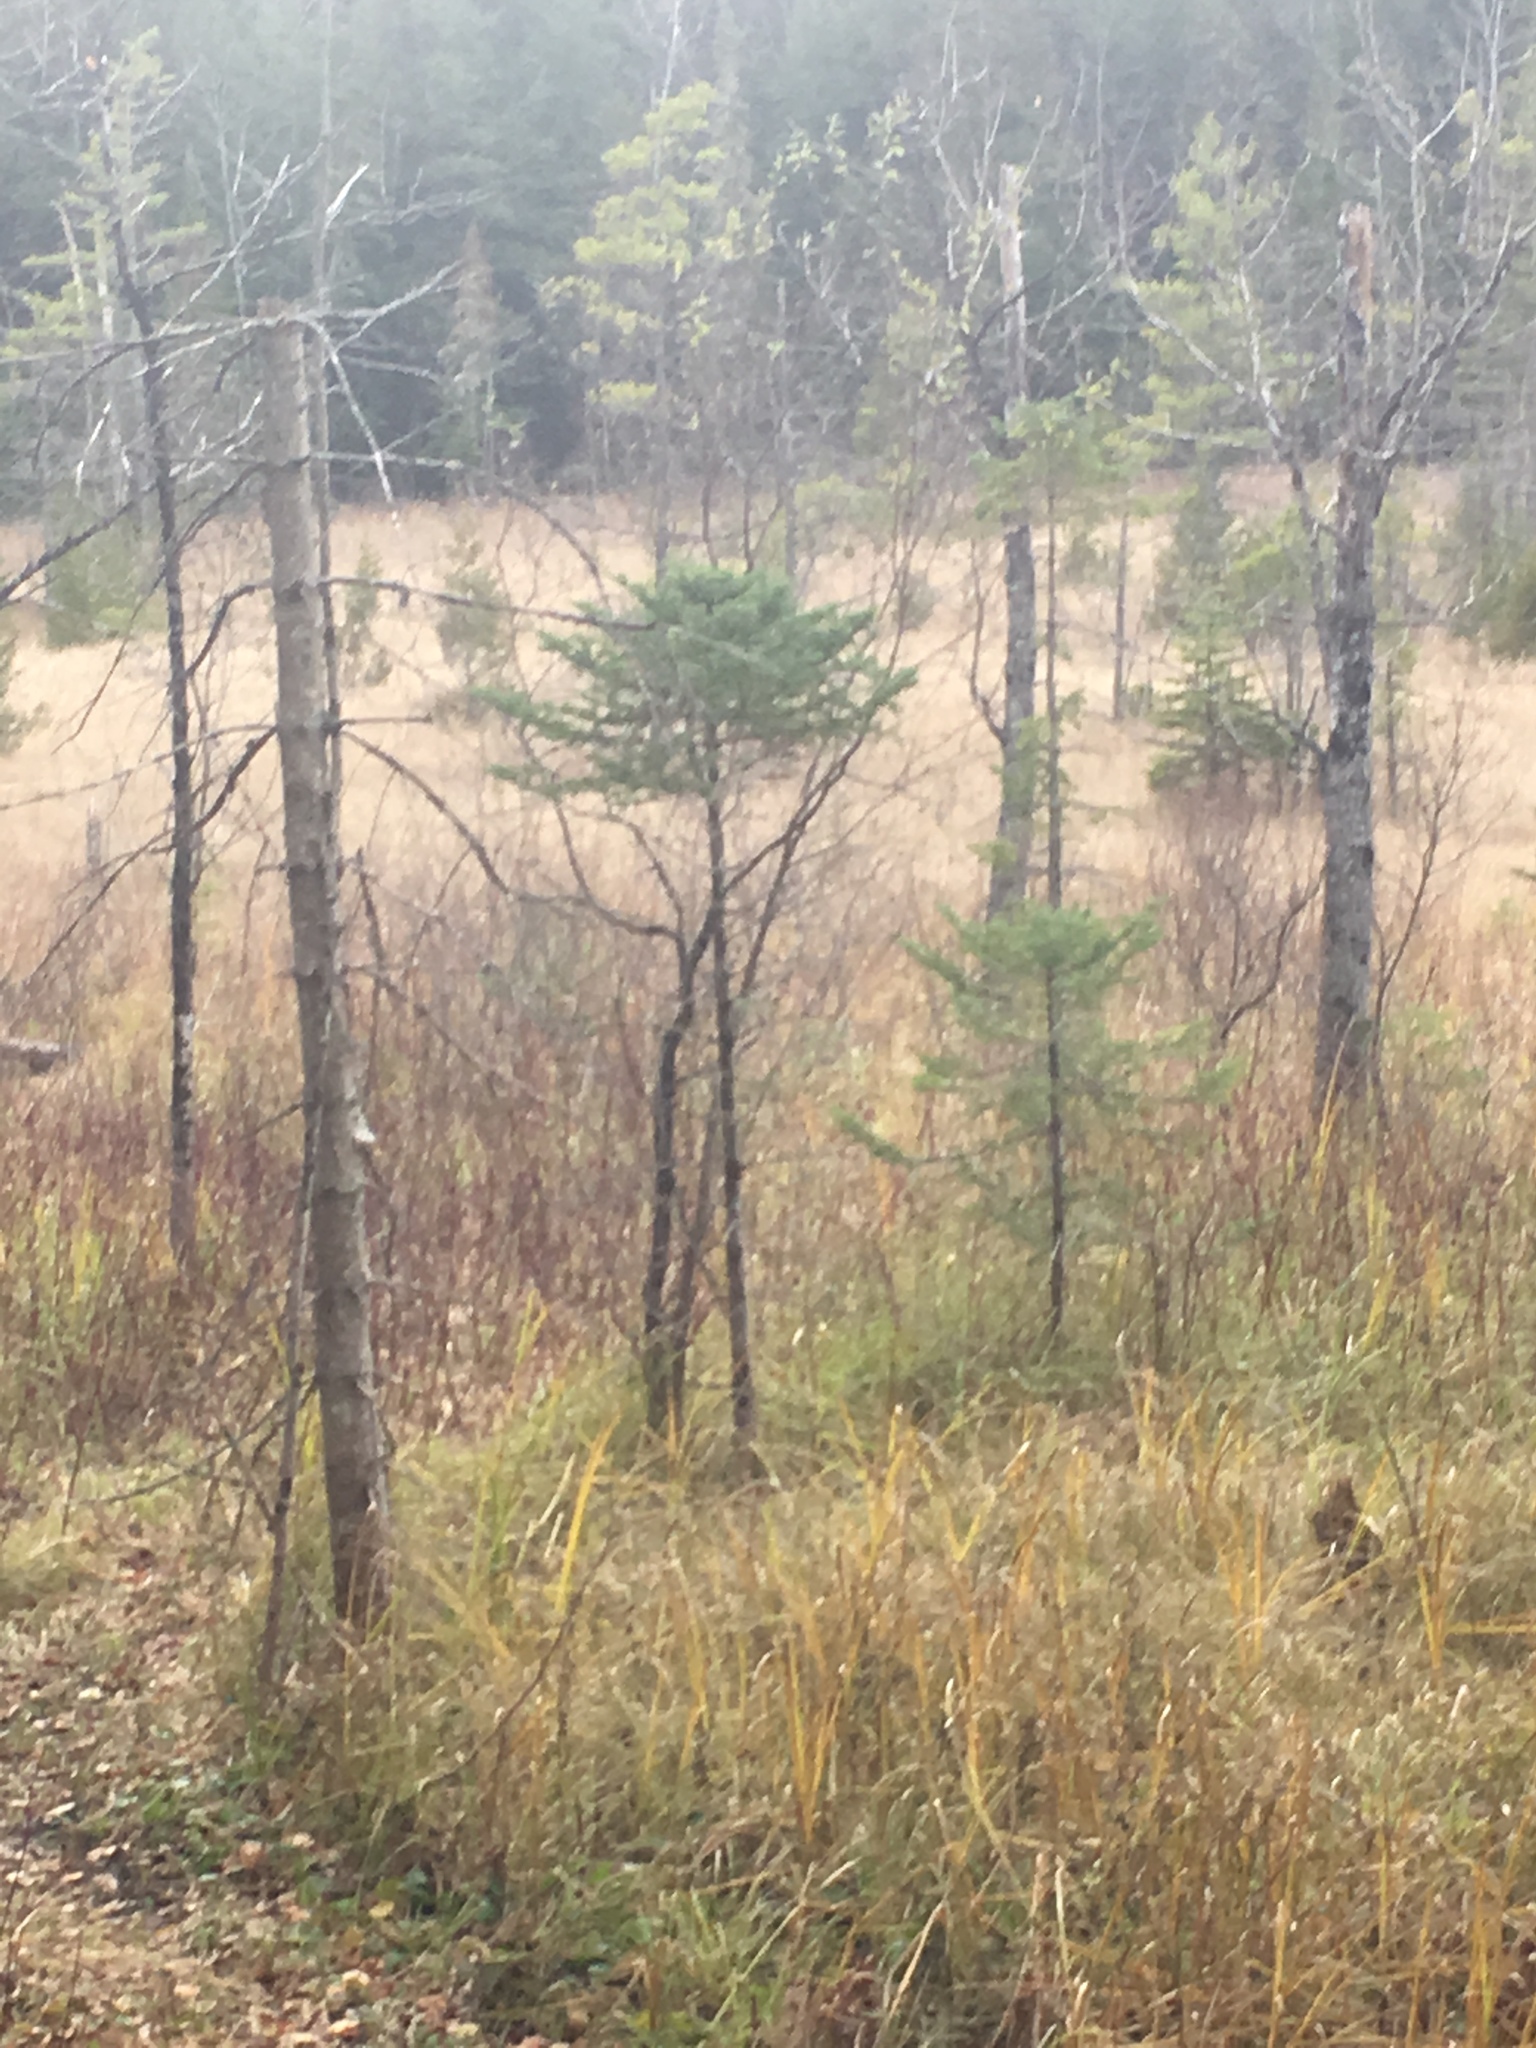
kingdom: Plantae
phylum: Tracheophyta
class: Pinopsida
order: Pinales
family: Pinaceae
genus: Picea
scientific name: Picea mariana
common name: Black spruce
